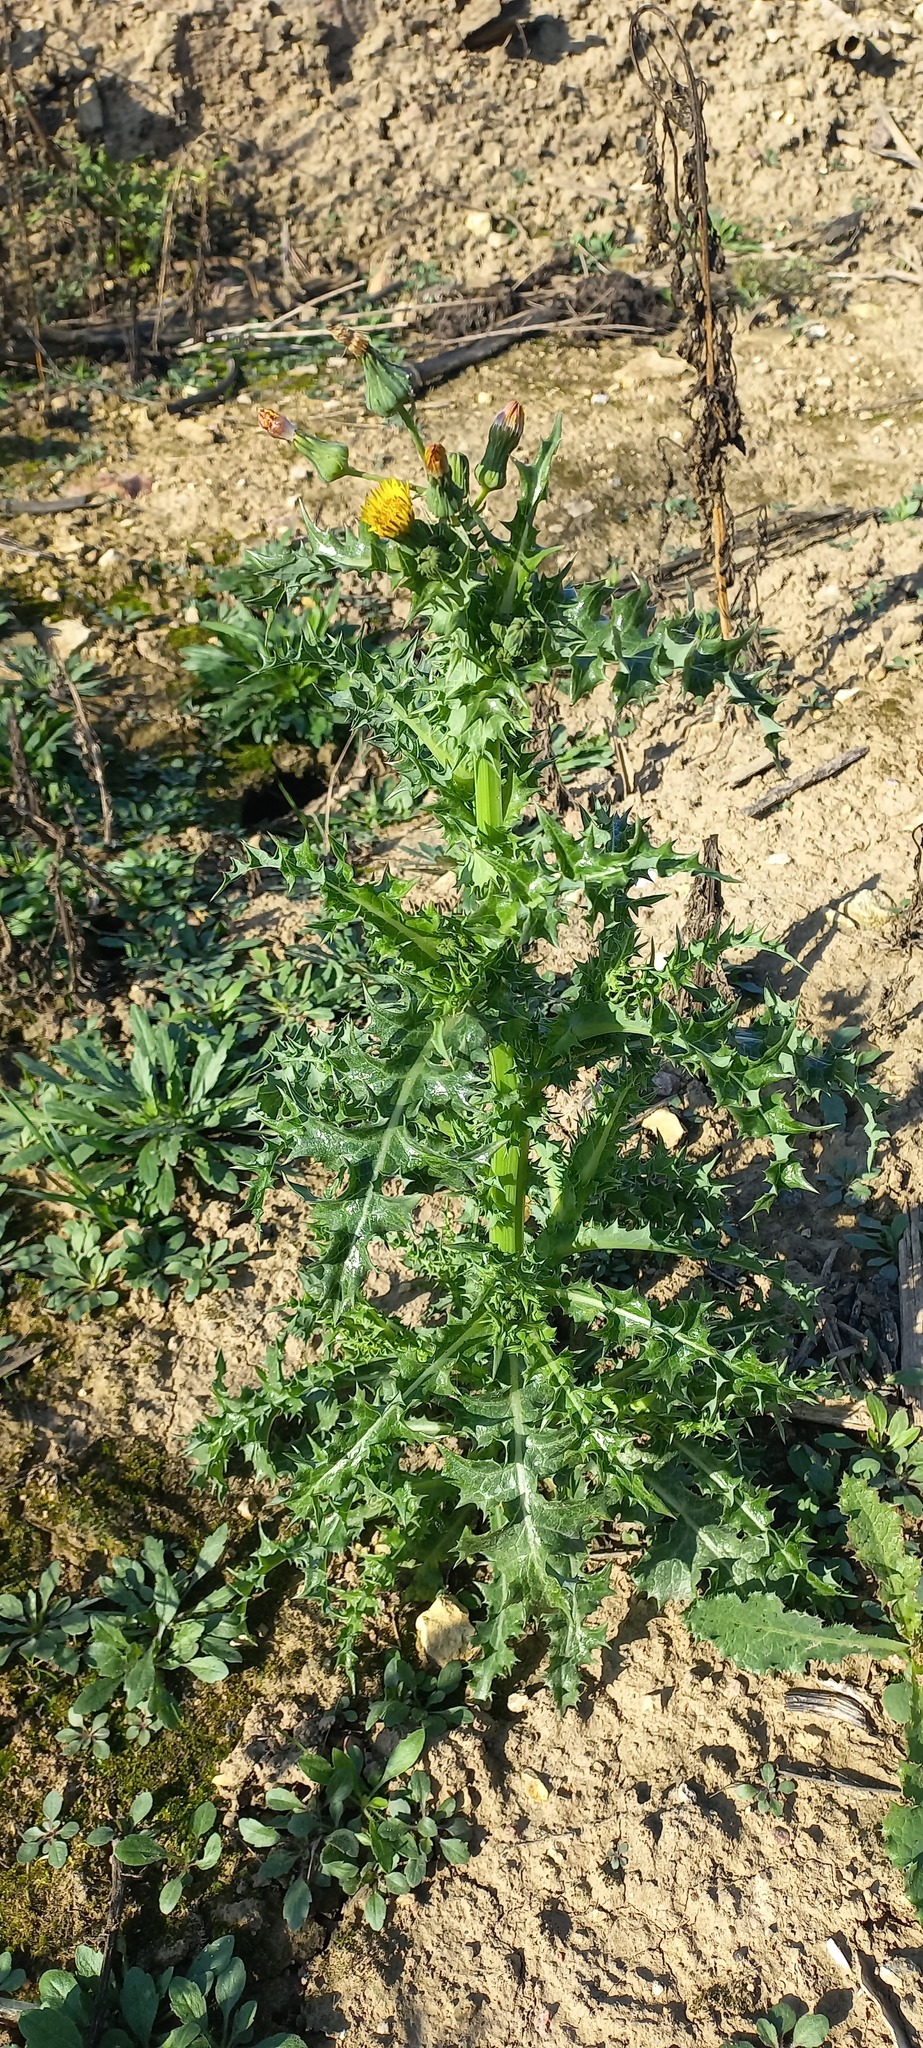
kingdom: Plantae
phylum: Tracheophyta
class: Magnoliopsida
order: Asterales
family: Asteraceae
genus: Sonchus
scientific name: Sonchus asper
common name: Prickly sow-thistle
